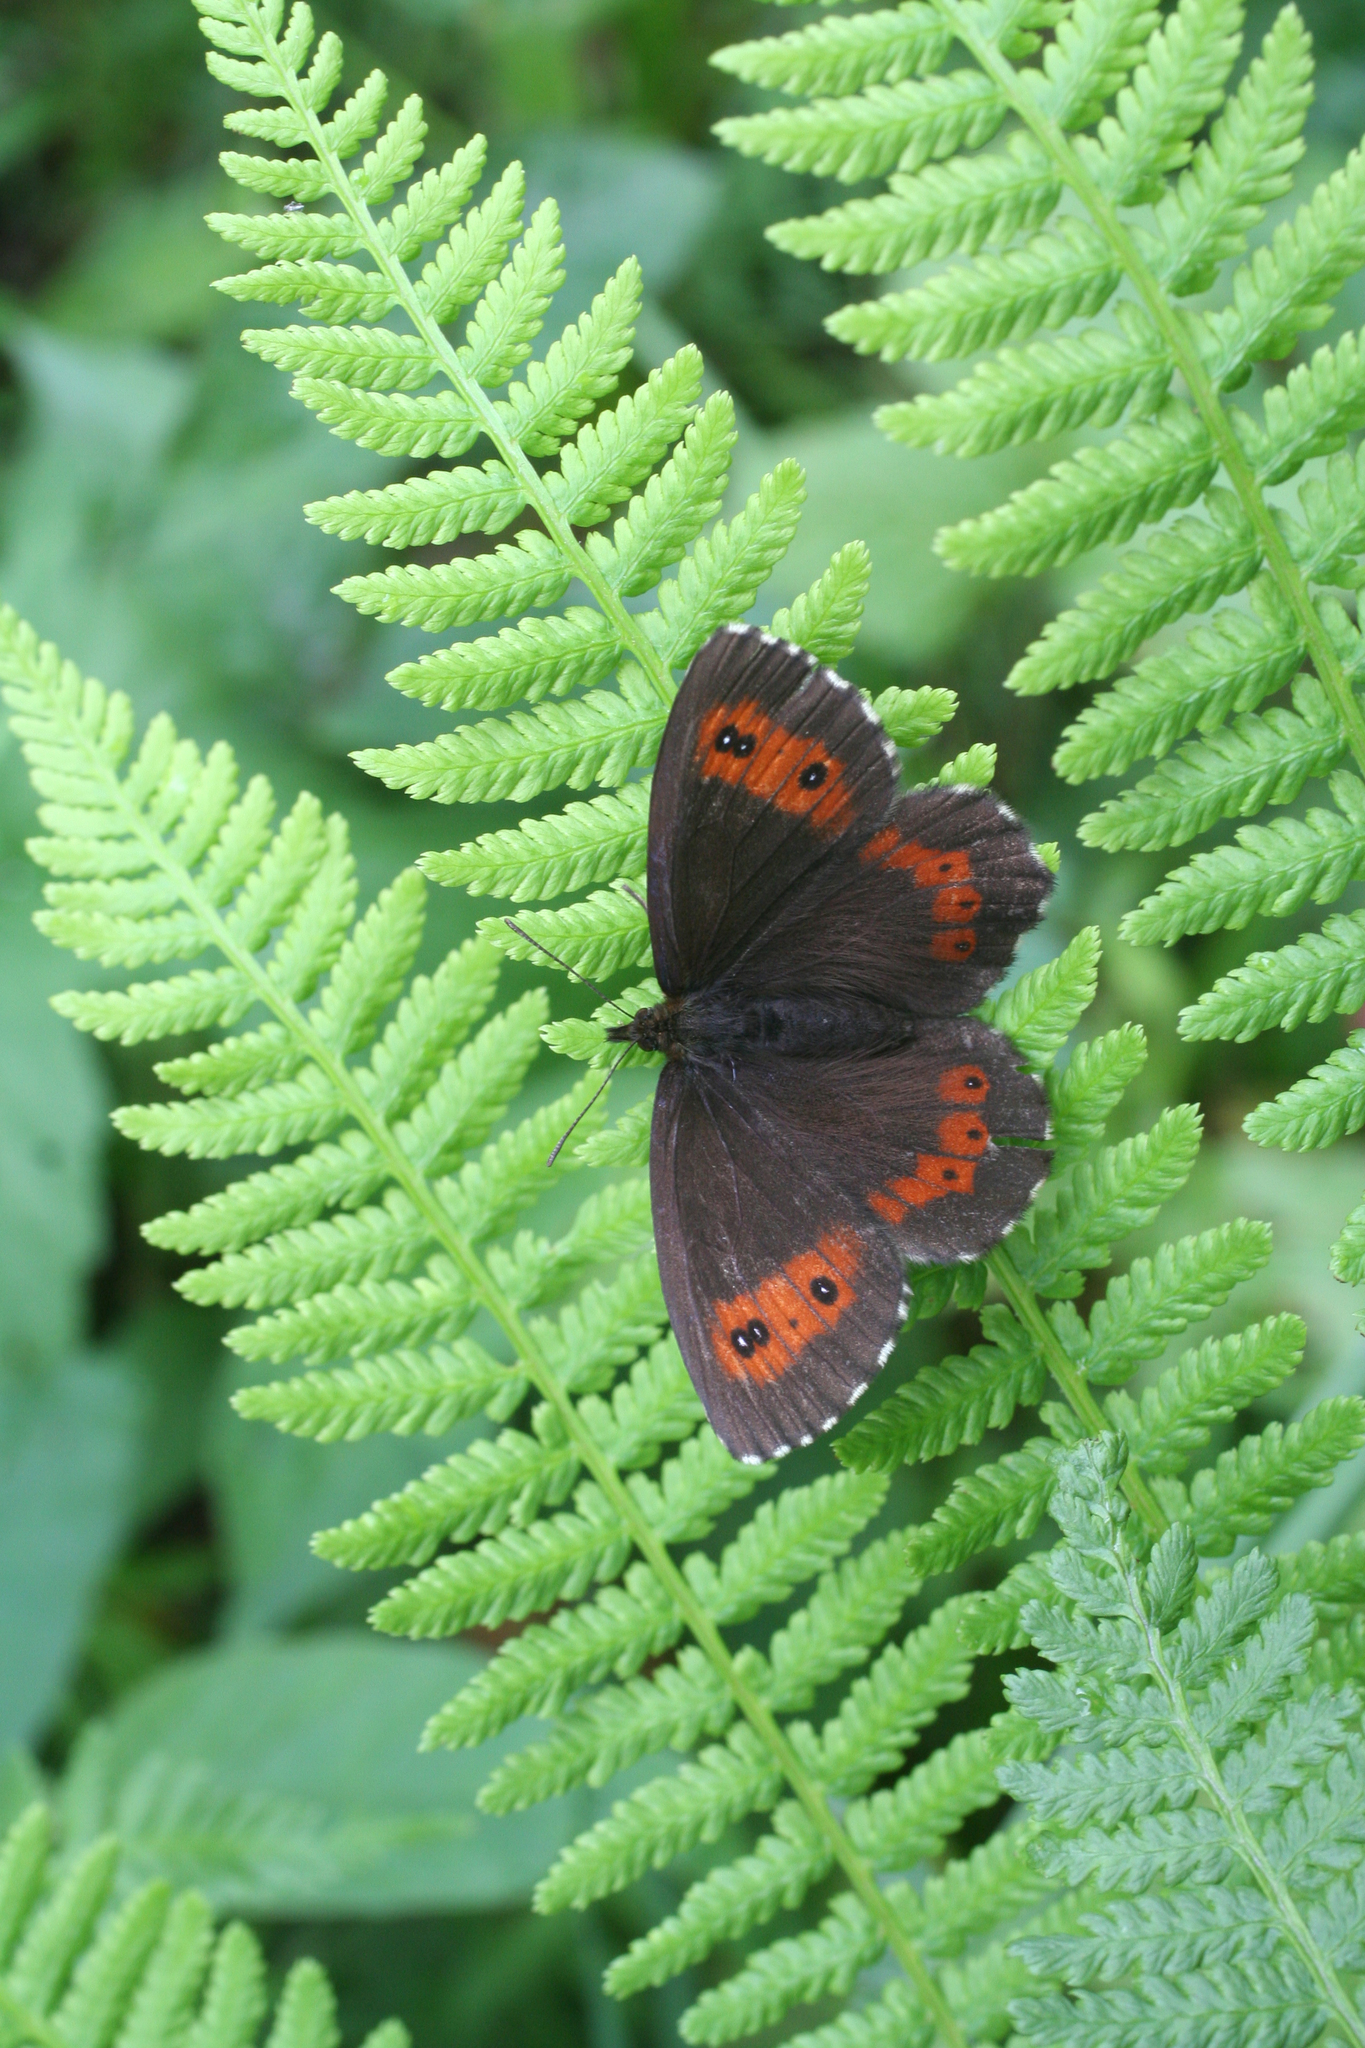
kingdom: Animalia
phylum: Arthropoda
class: Insecta
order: Lepidoptera
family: Nymphalidae
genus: Erebia
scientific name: Erebia ligea
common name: Arran brown
